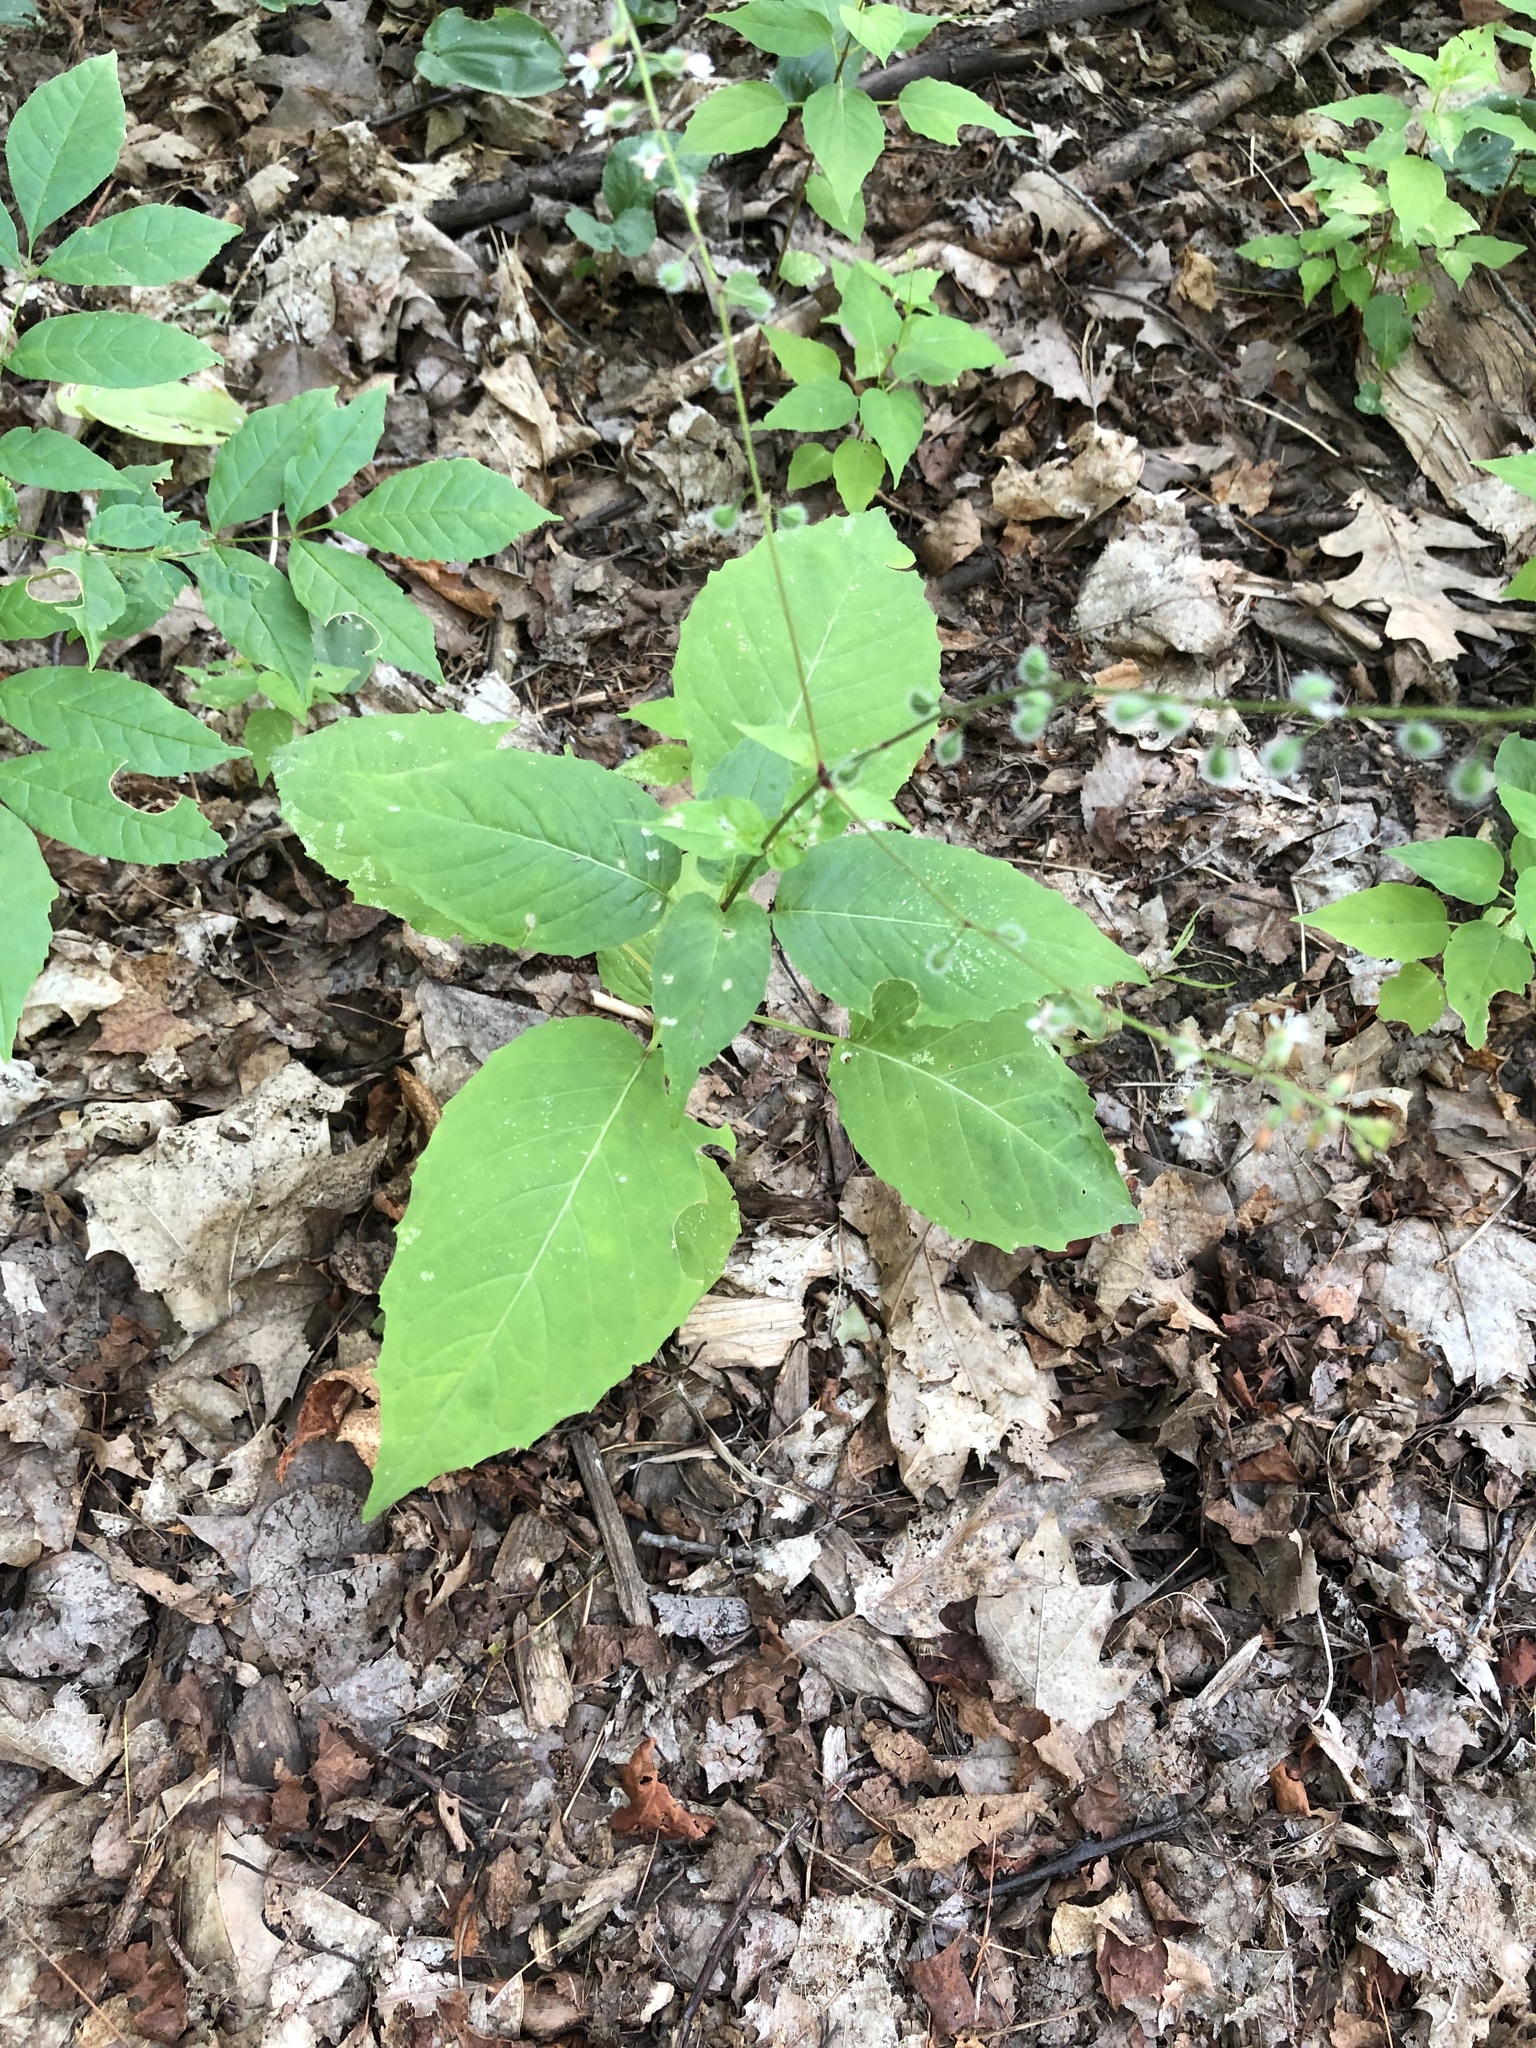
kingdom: Plantae
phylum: Tracheophyta
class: Magnoliopsida
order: Myrtales
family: Onagraceae
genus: Circaea
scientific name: Circaea canadensis
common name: Broad-leaved enchanter's nightshade
